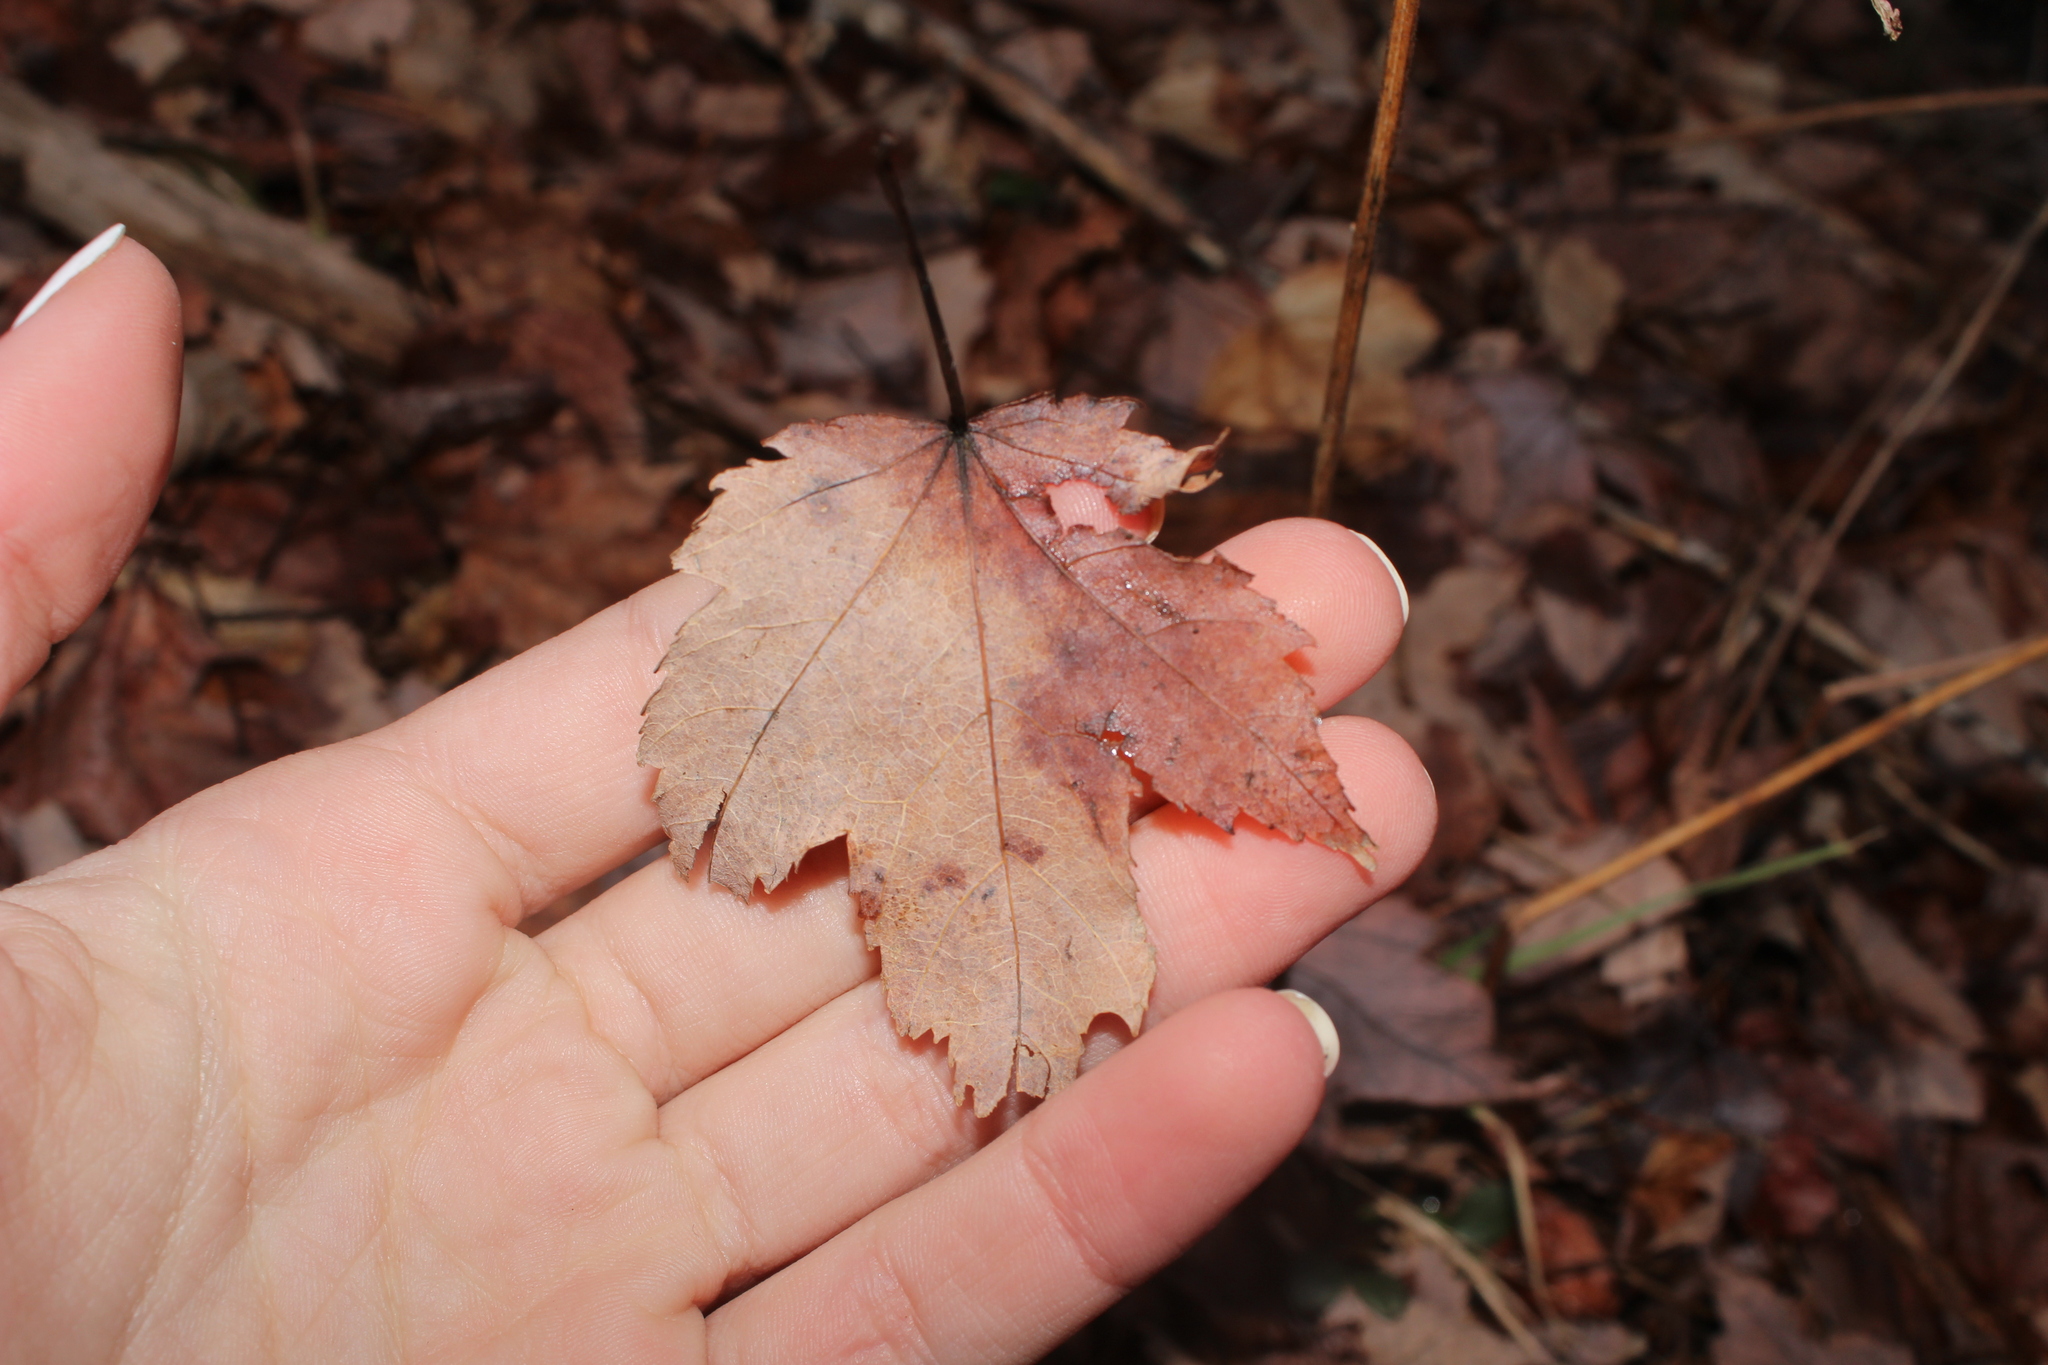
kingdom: Plantae
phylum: Tracheophyta
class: Magnoliopsida
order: Sapindales
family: Sapindaceae
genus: Acer
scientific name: Acer rubrum
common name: Red maple
